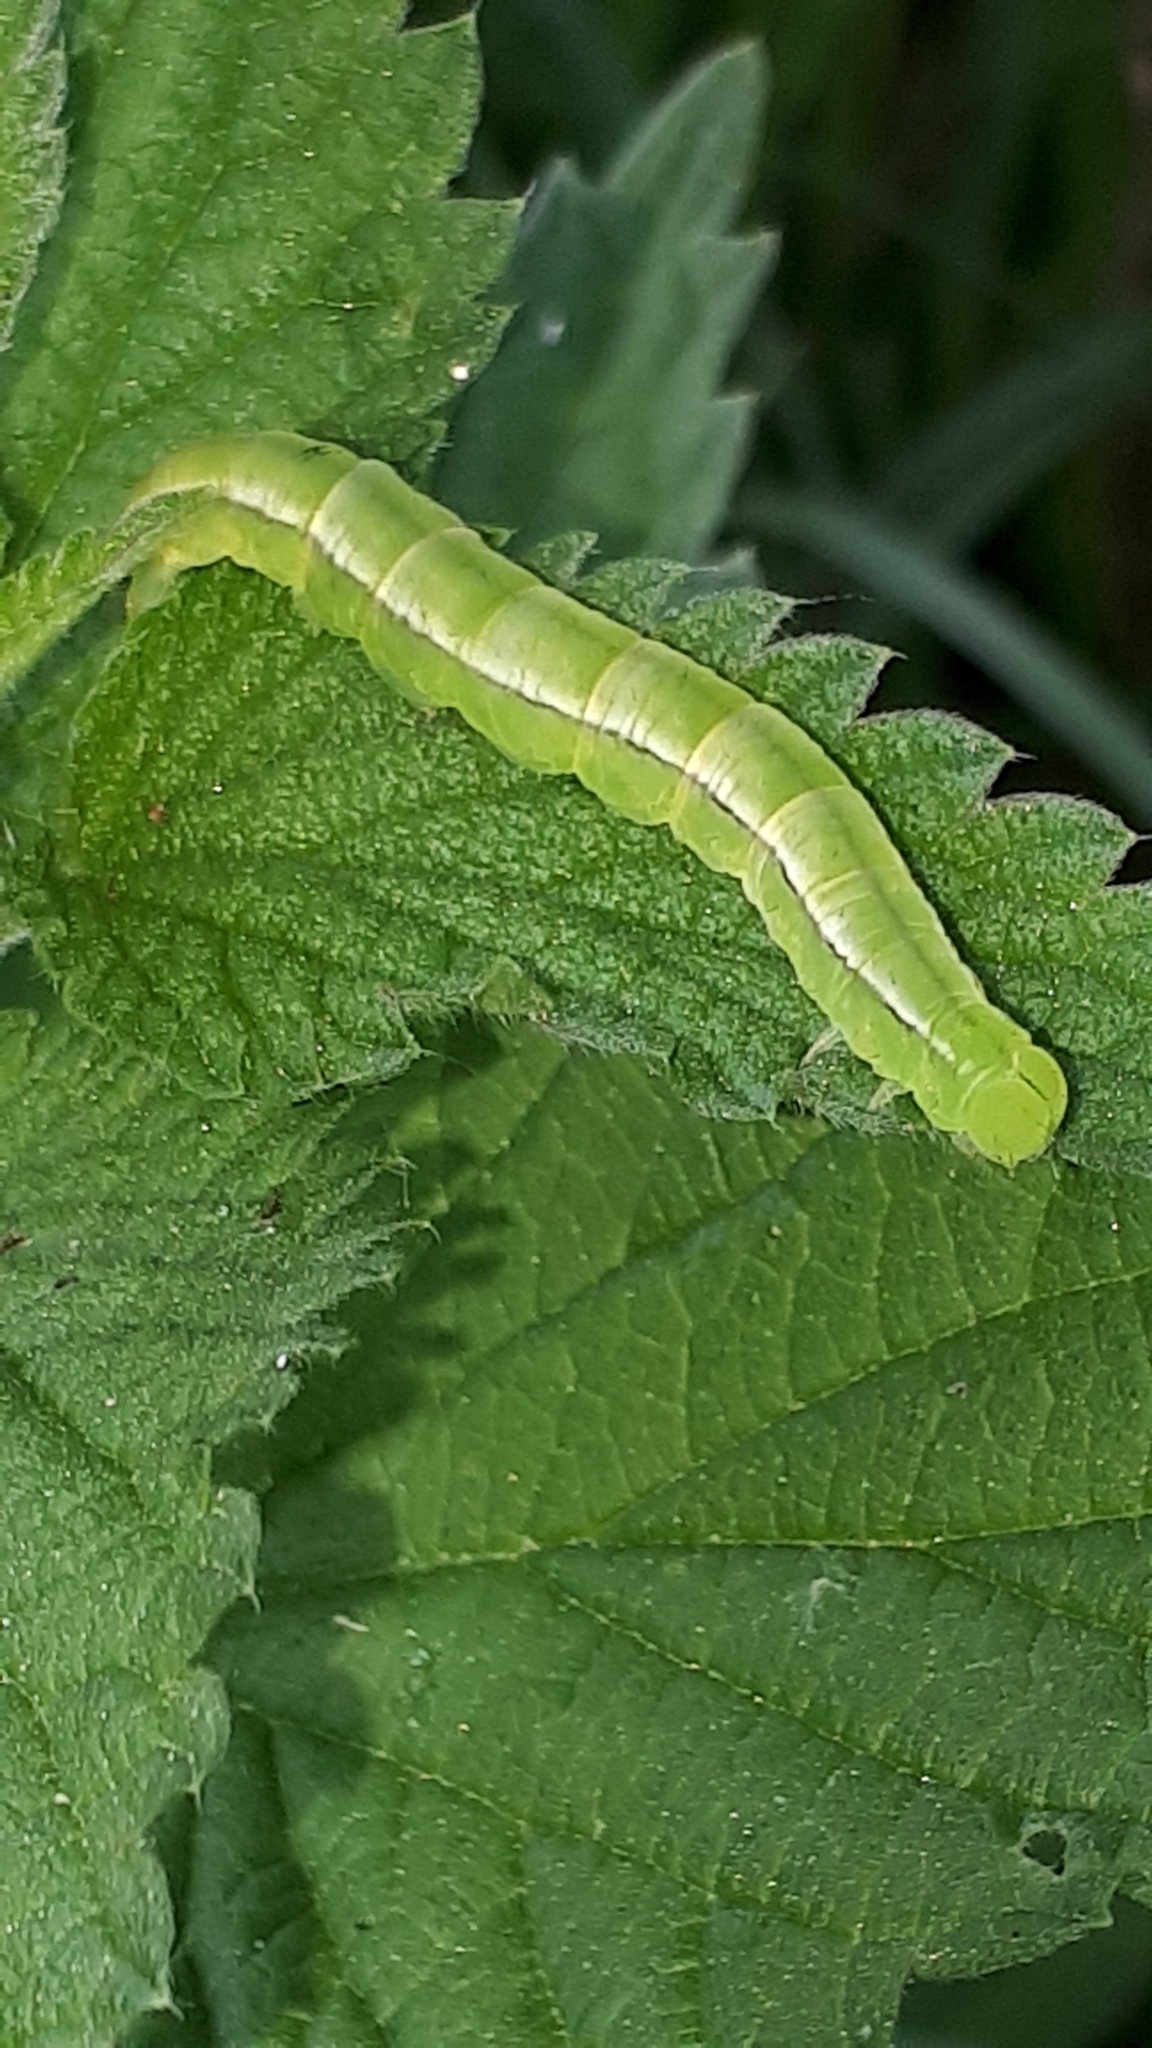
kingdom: Animalia
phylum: Arthropoda
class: Insecta
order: Lepidoptera
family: Erebidae
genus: Scoliopteryx
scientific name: Scoliopteryx libatrix
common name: Herald
